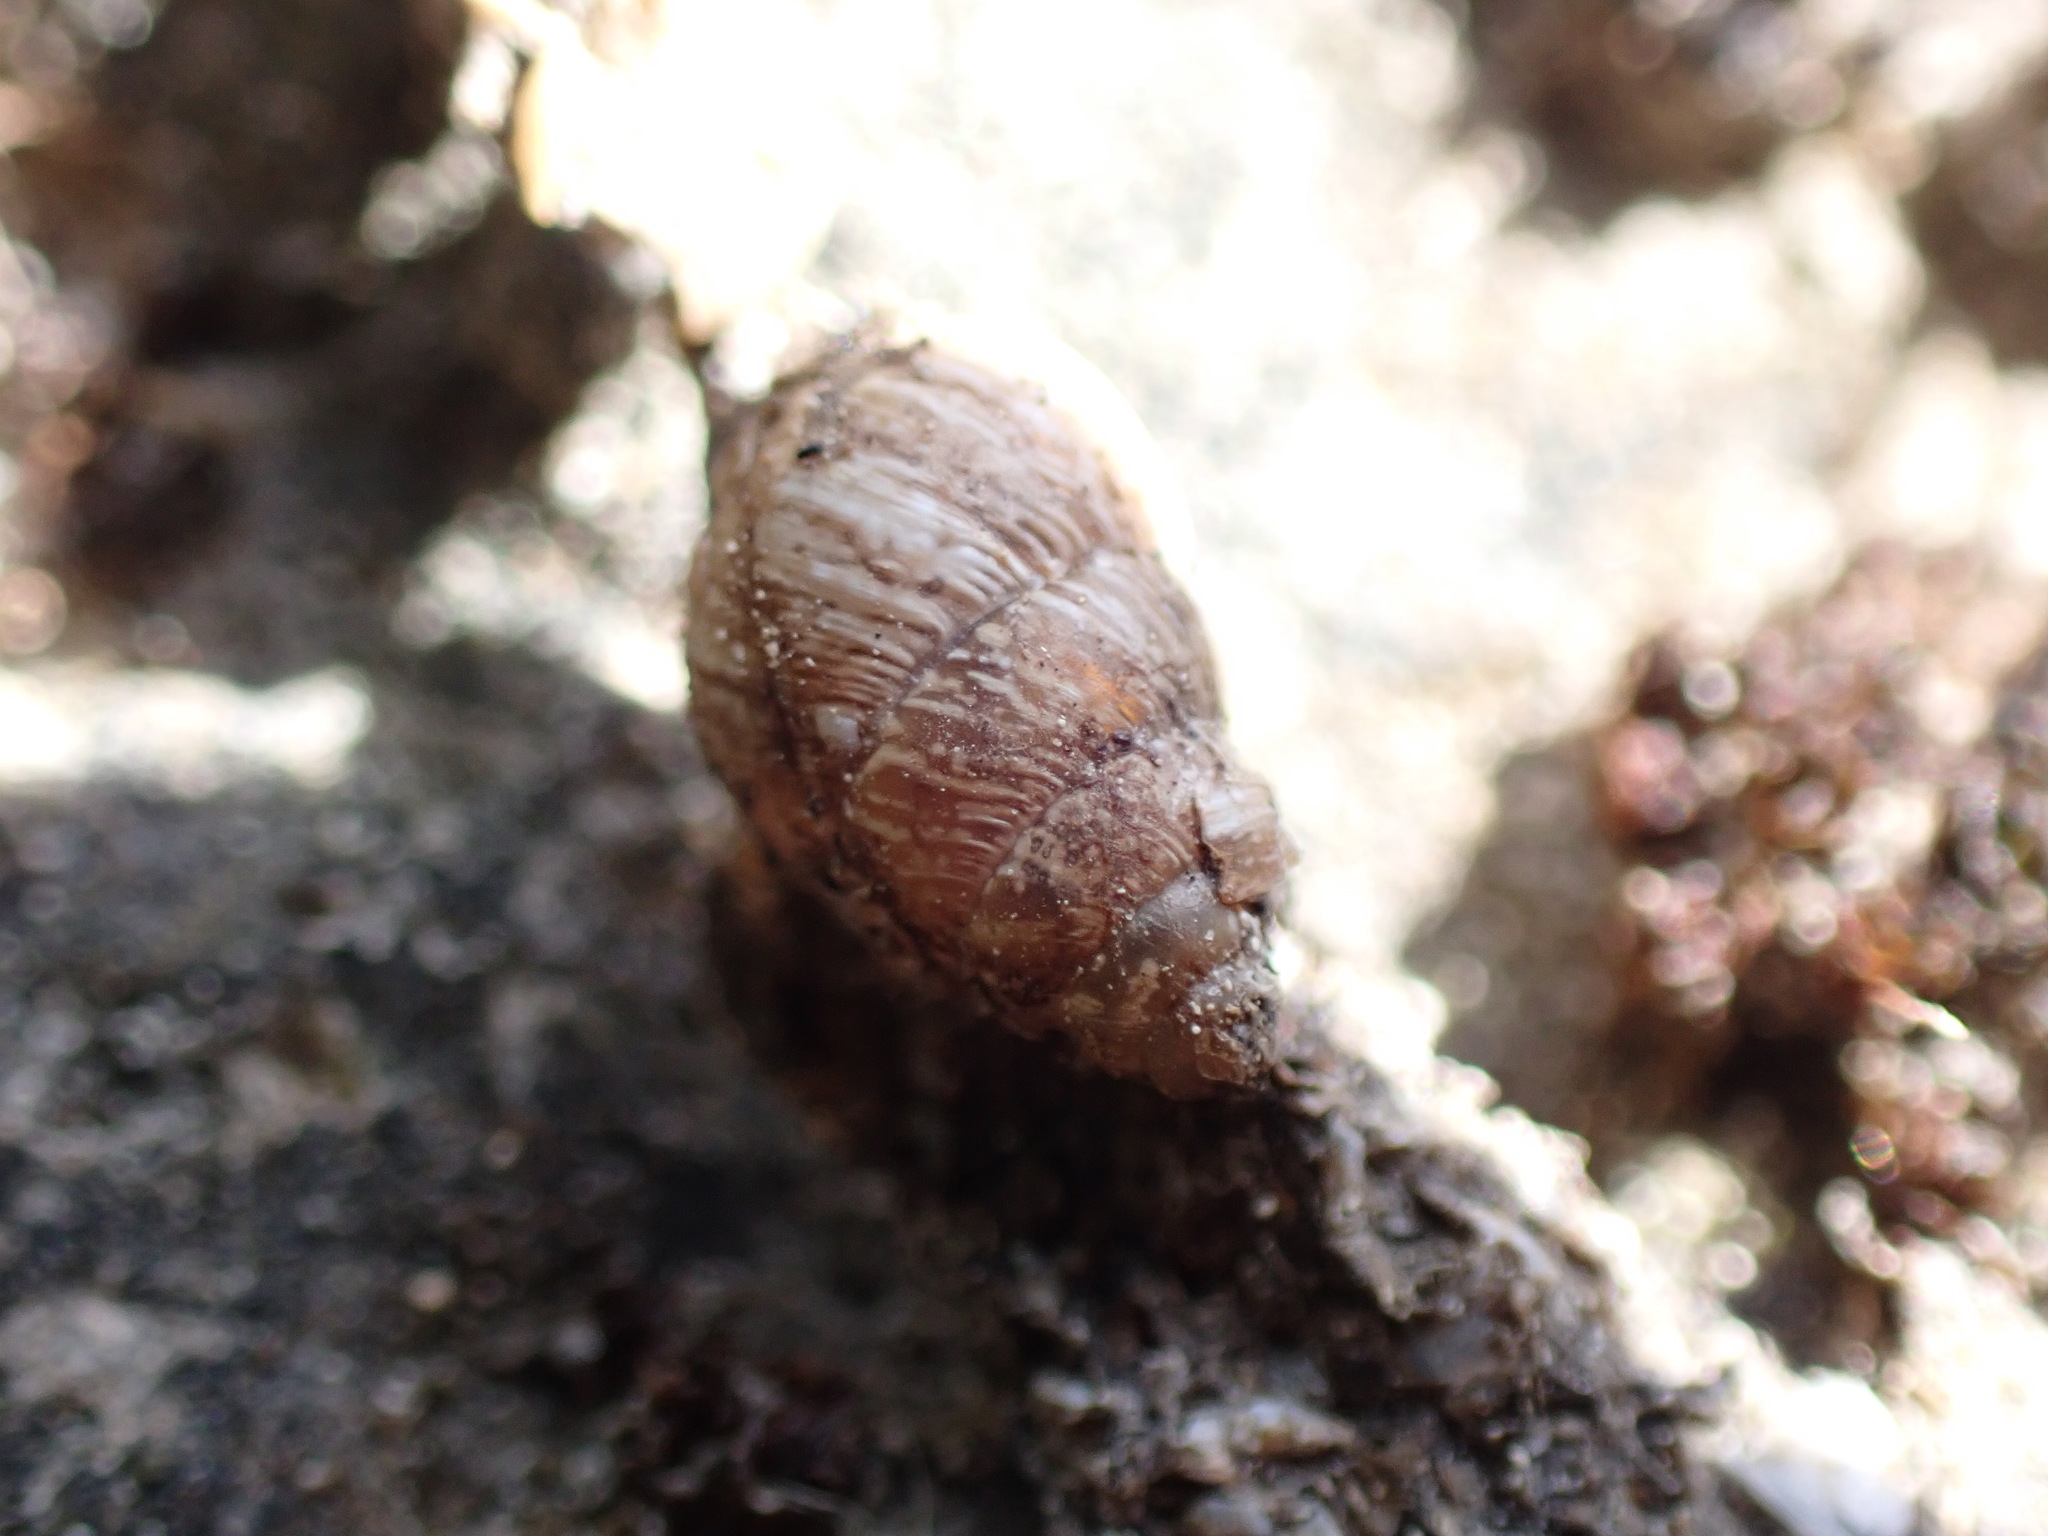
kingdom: Animalia
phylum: Mollusca
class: Gastropoda
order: Stylommatophora
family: Geomitridae
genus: Cochlicella
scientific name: Cochlicella barbara
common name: Potbellied helicellid
